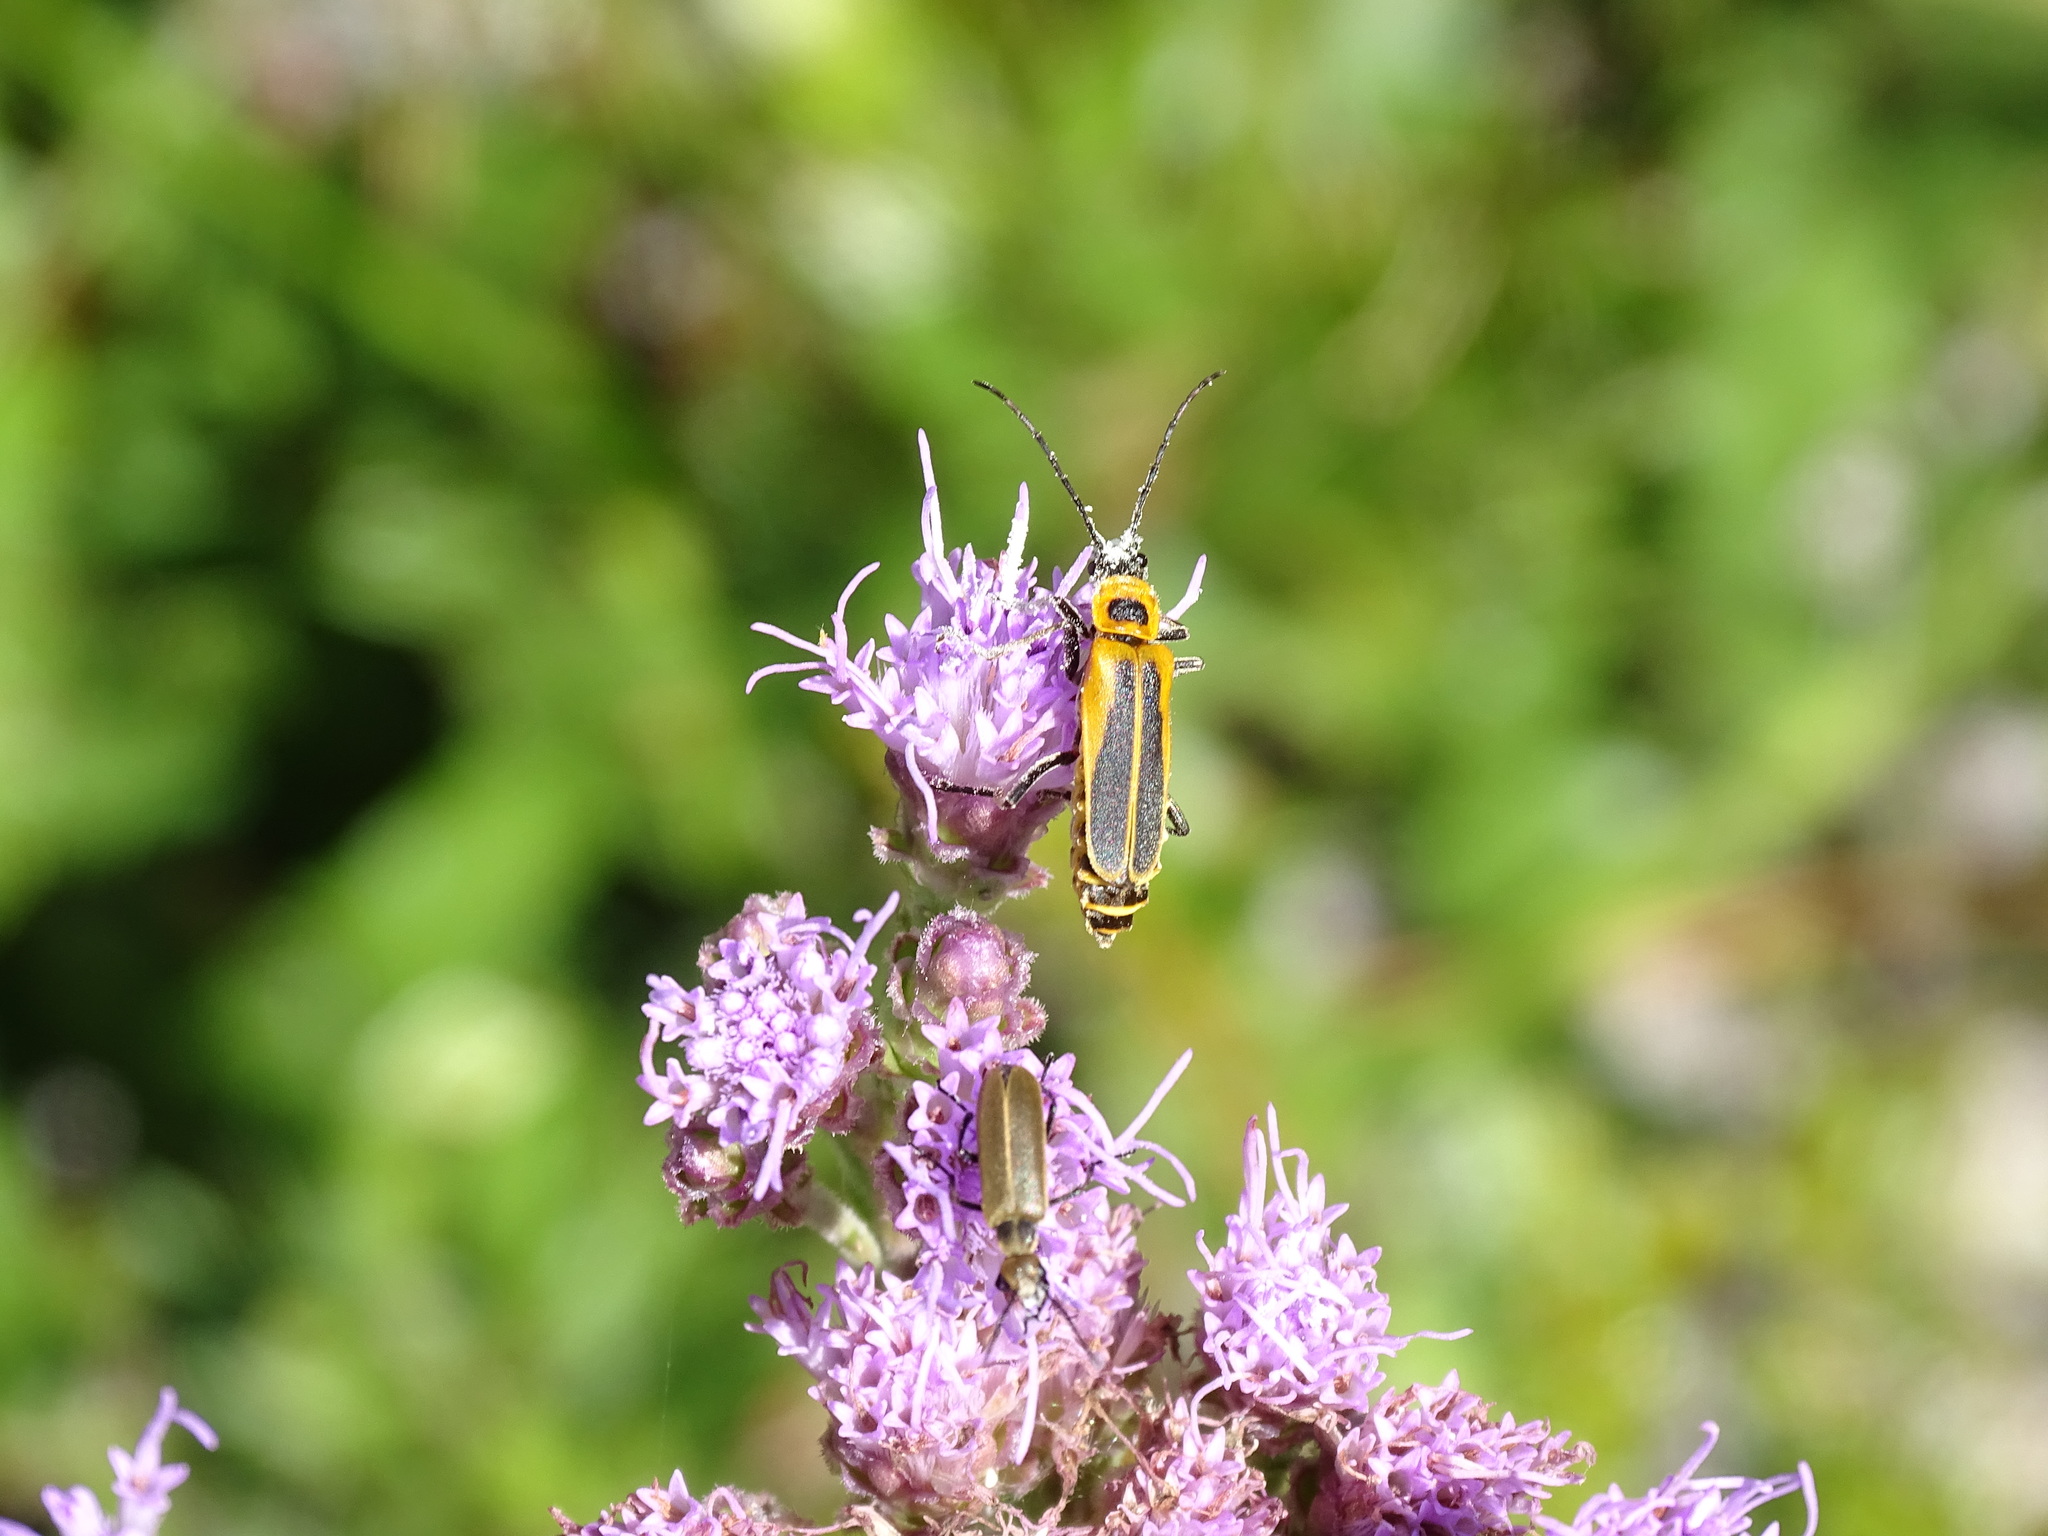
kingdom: Animalia
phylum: Arthropoda
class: Insecta
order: Coleoptera
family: Cantharidae
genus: Chauliognathus
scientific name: Chauliognathus pensylvanicus
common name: Goldenrod soldier beetle
